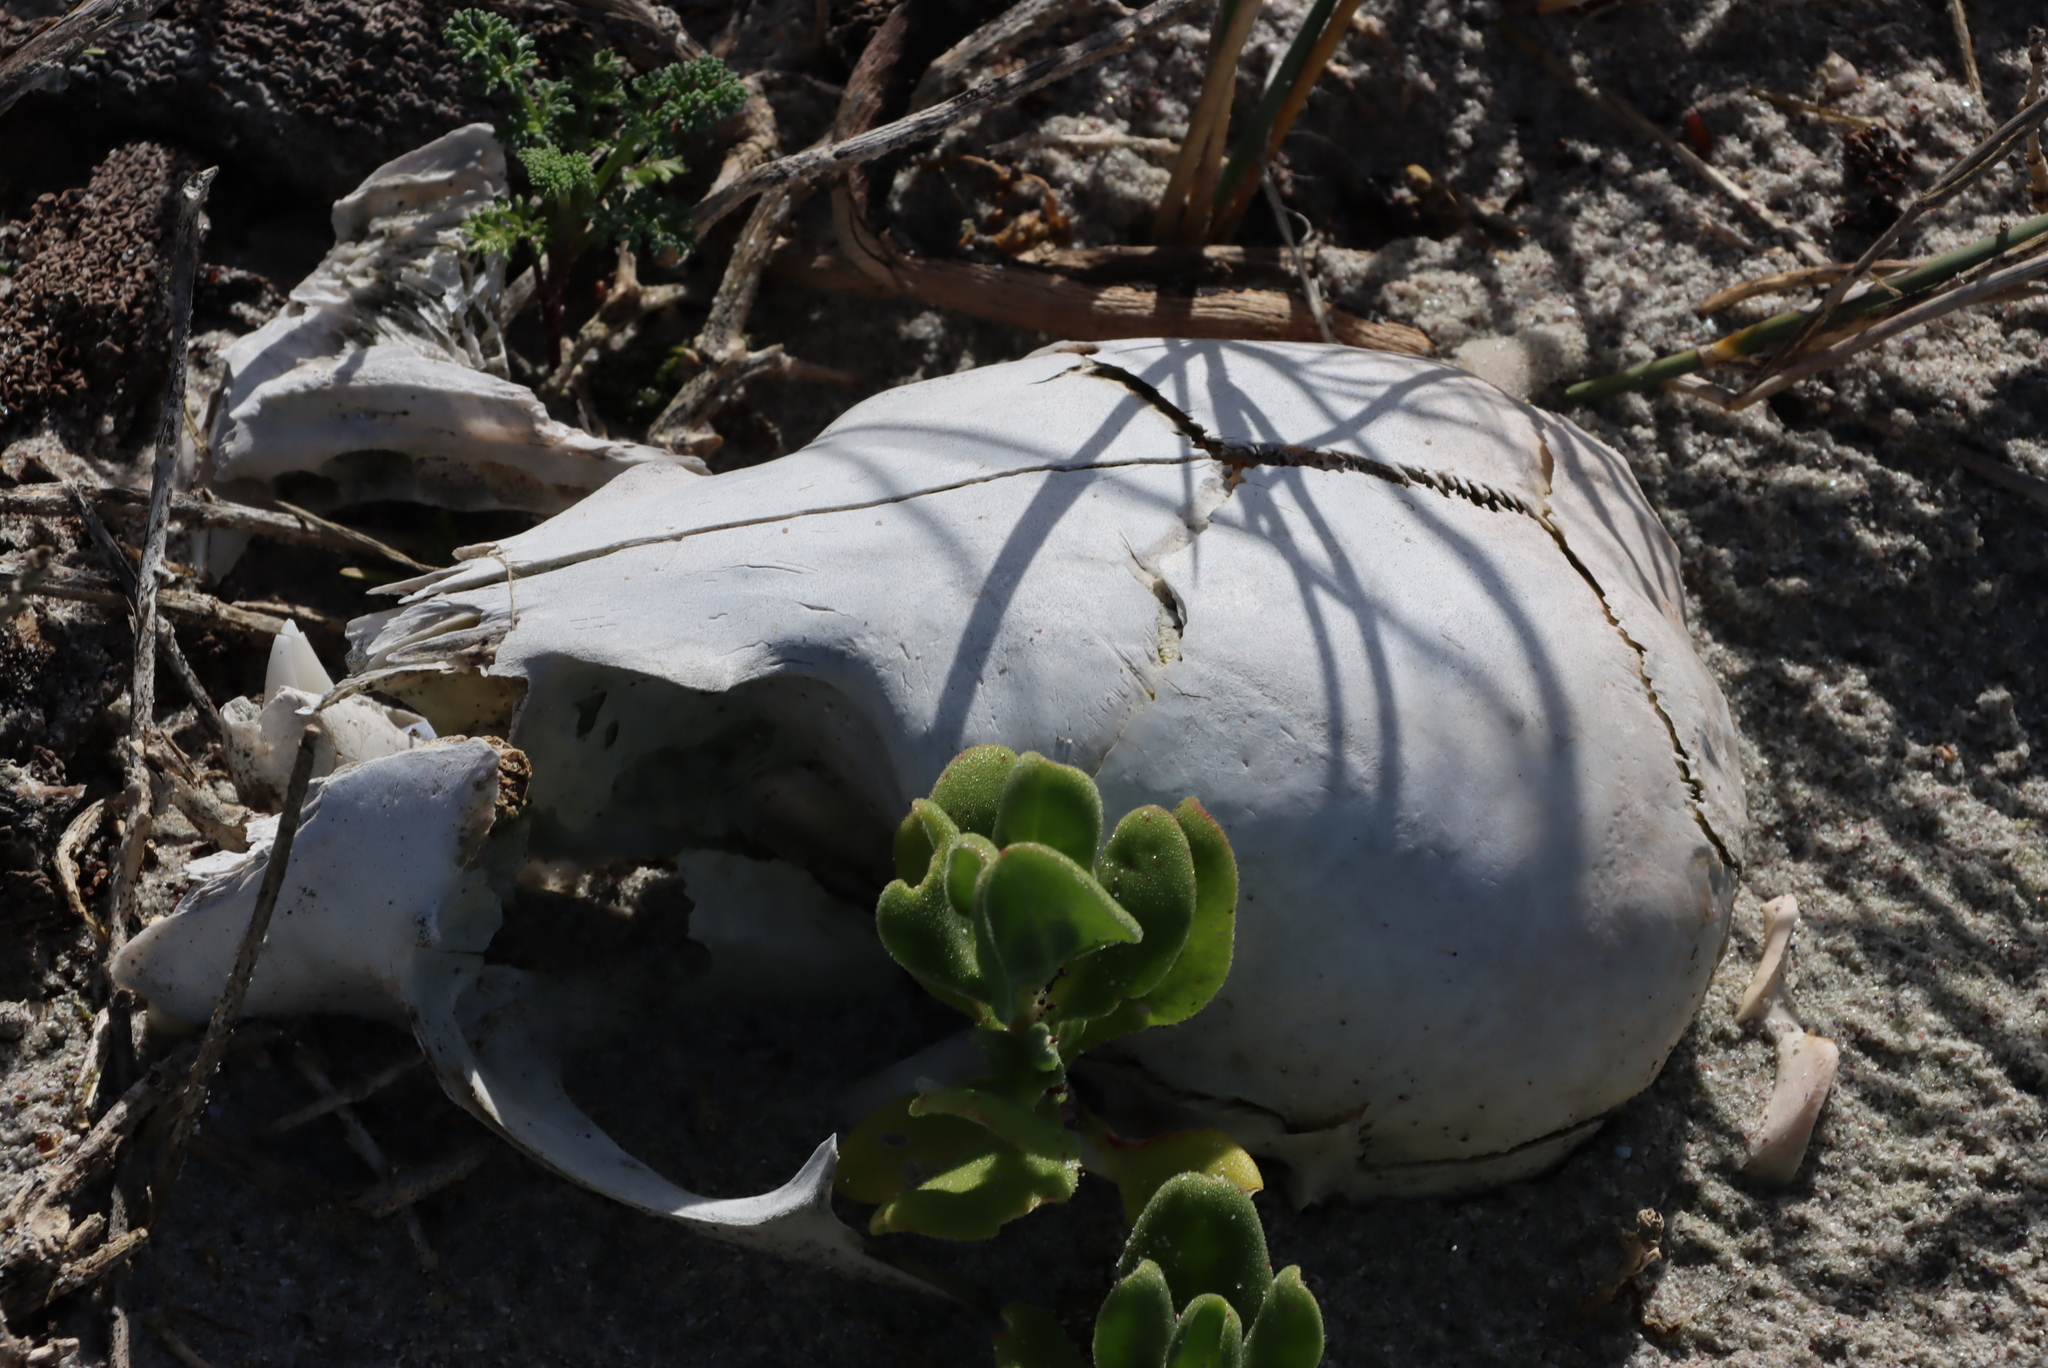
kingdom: Animalia
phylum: Chordata
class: Mammalia
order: Carnivora
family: Otariidae
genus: Arctocephalus
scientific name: Arctocephalus pusillus
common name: Brown fur seal
